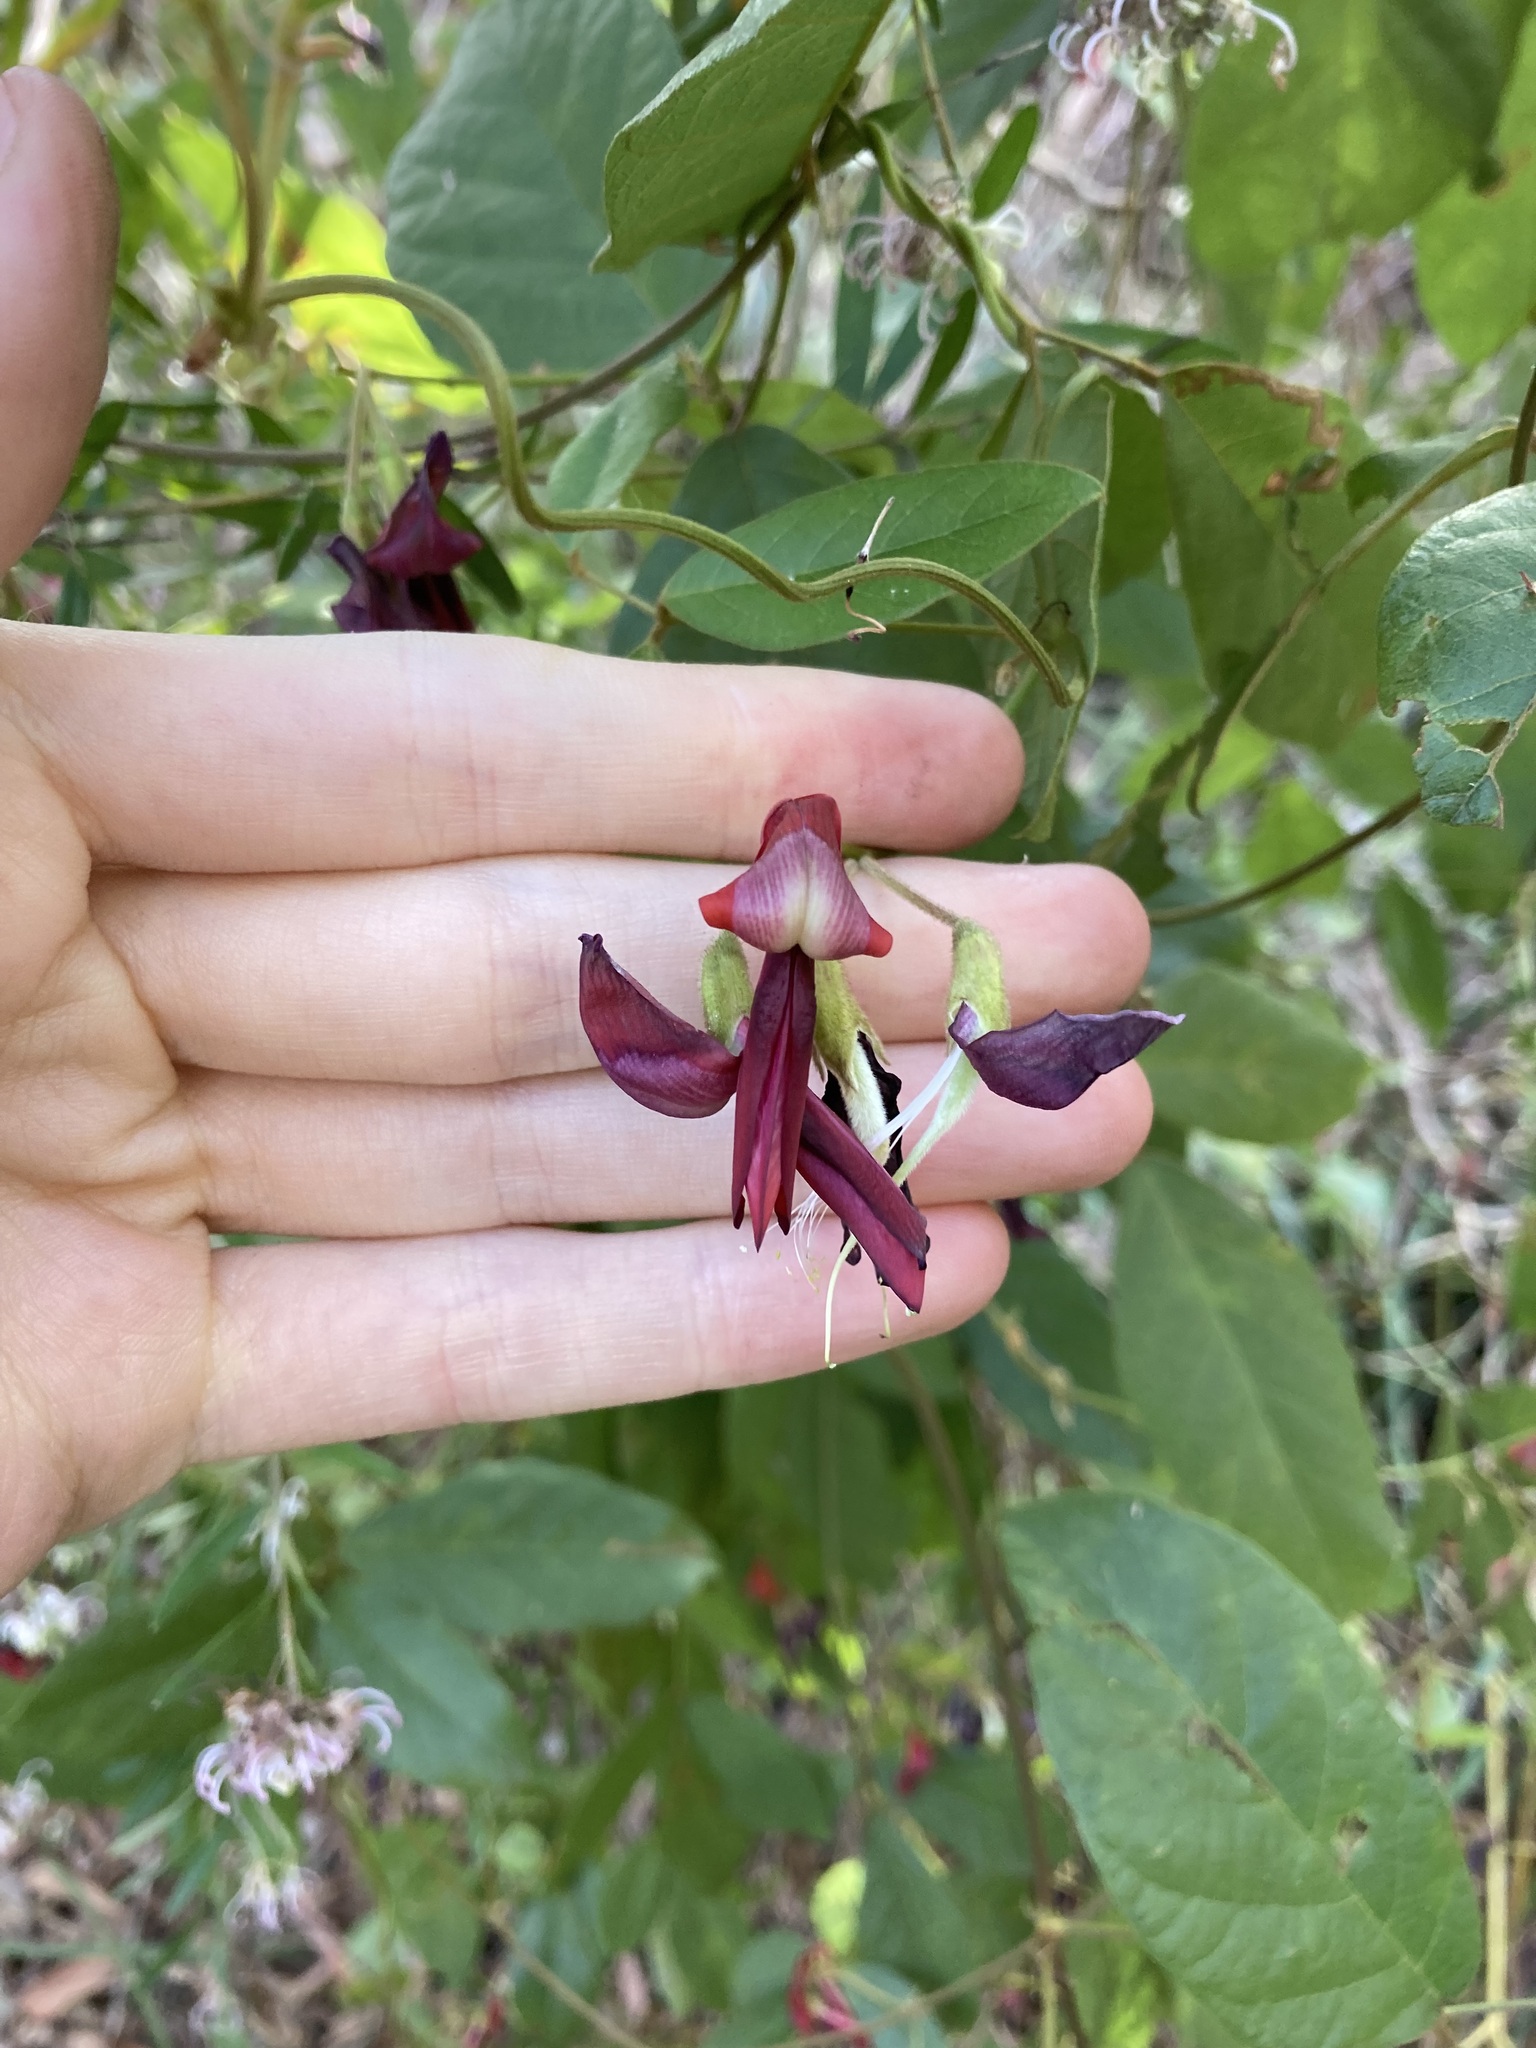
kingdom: Plantae
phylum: Tracheophyta
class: Magnoliopsida
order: Fabales
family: Fabaceae
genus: Kennedia
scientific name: Kennedia rubicunda
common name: Red kennedy-pea
